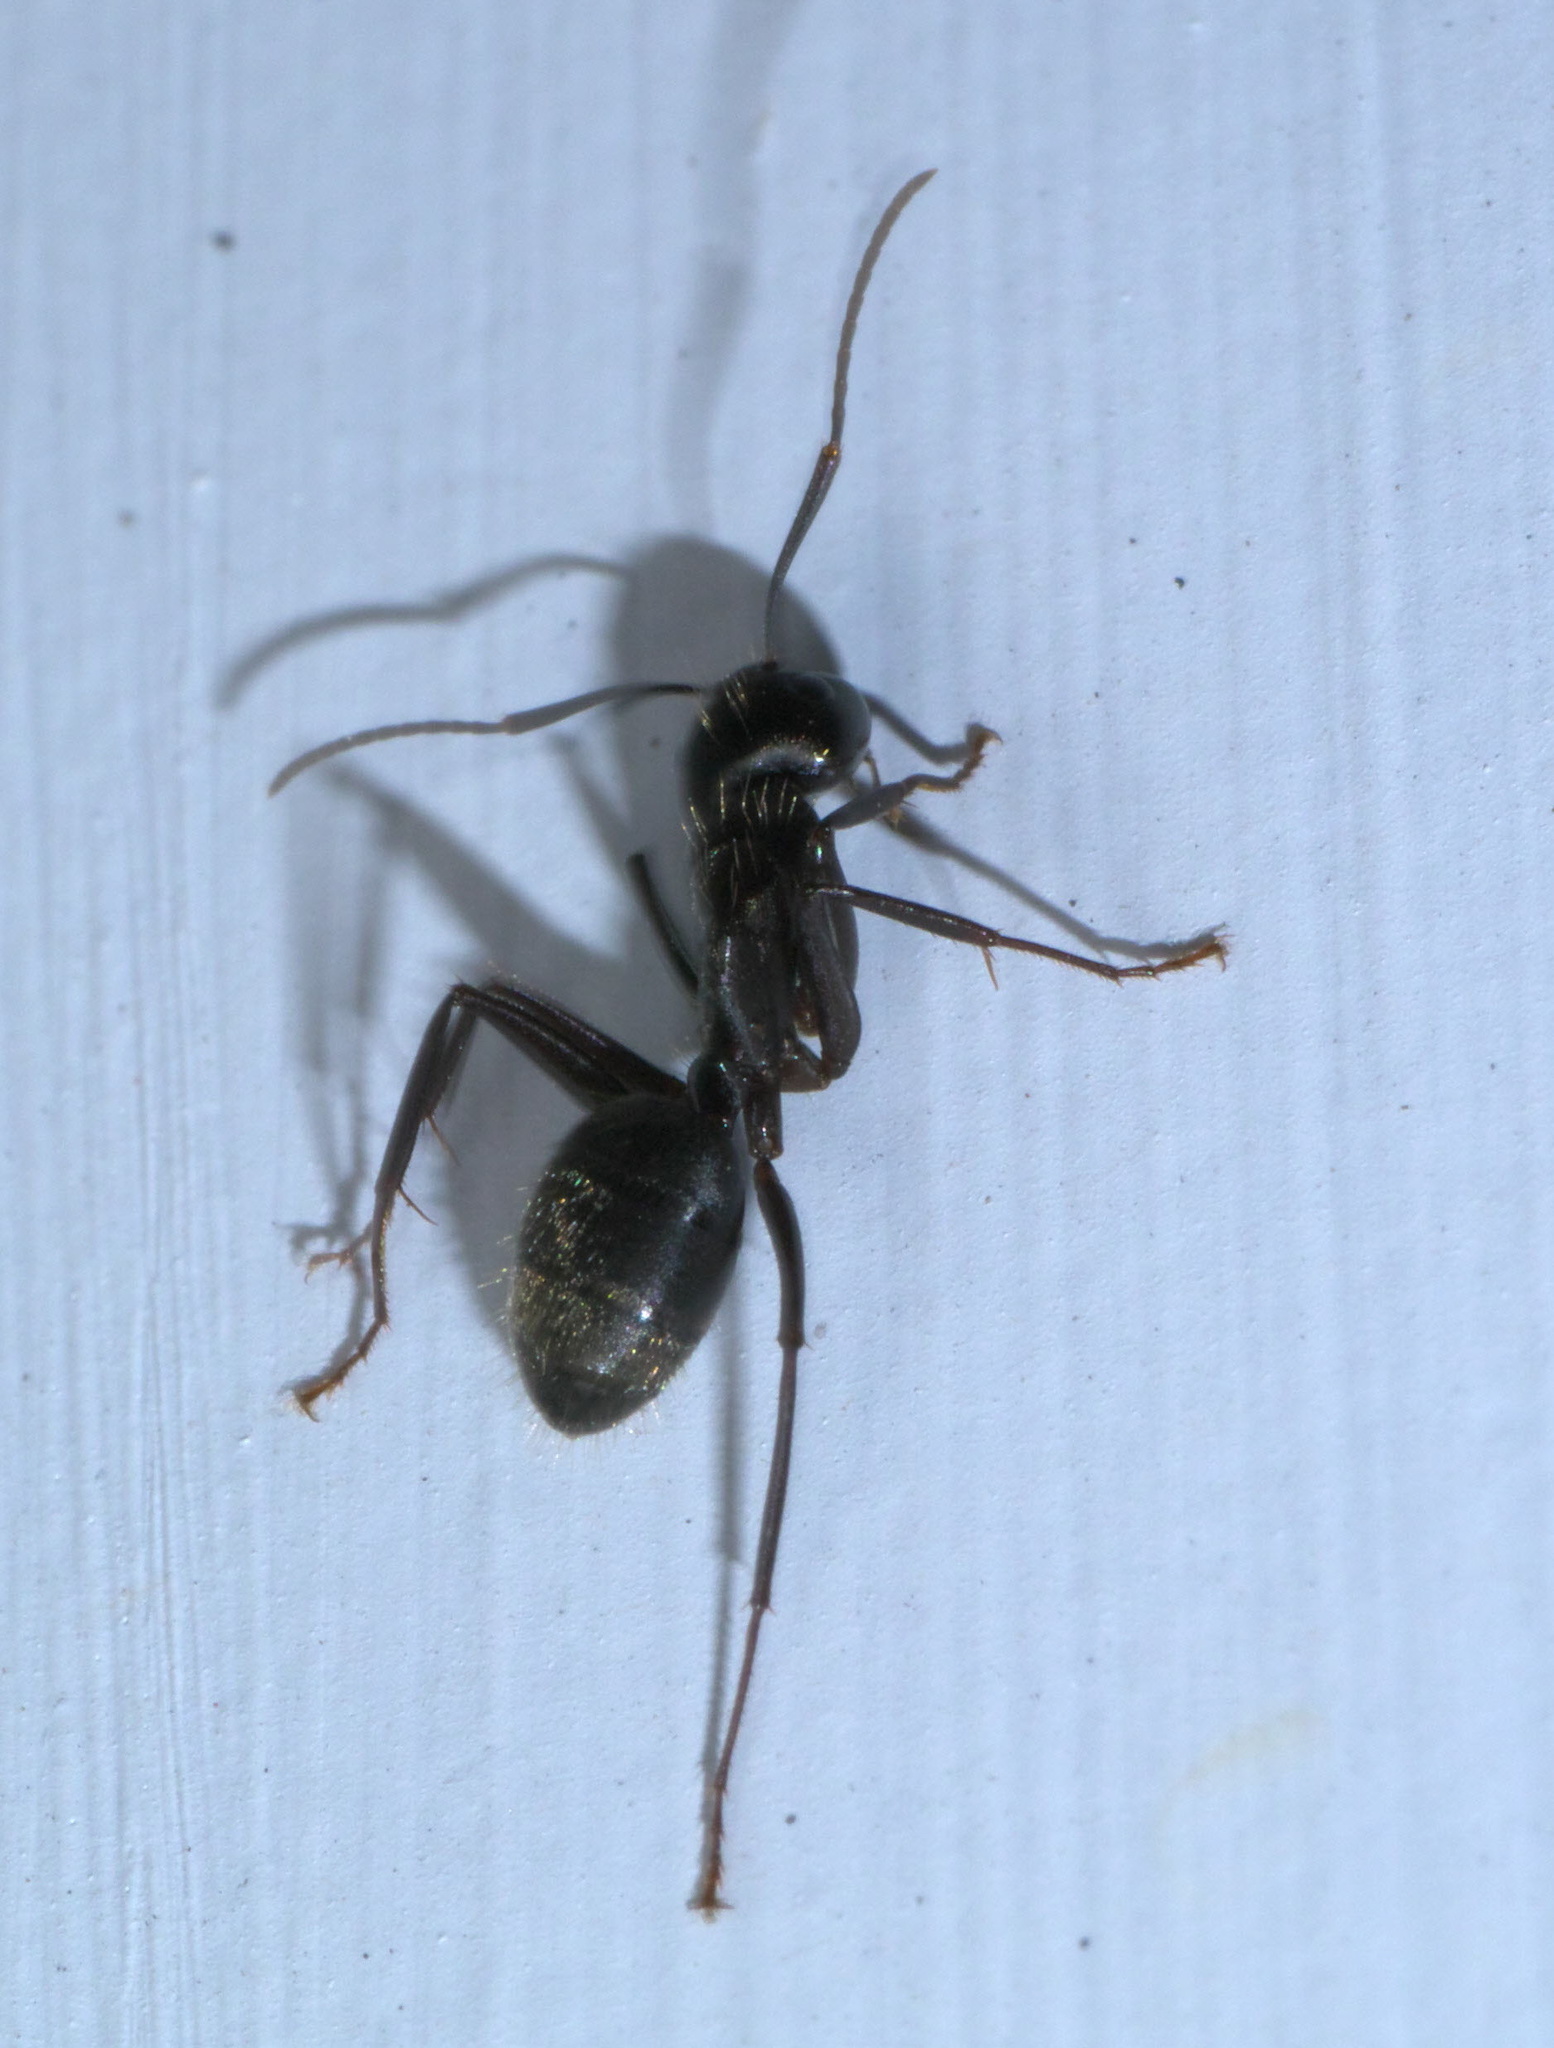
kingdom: Animalia
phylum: Arthropoda
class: Insecta
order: Hymenoptera
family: Formicidae
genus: Camponotus
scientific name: Camponotus pennsylvanicus
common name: Black carpenter ant
